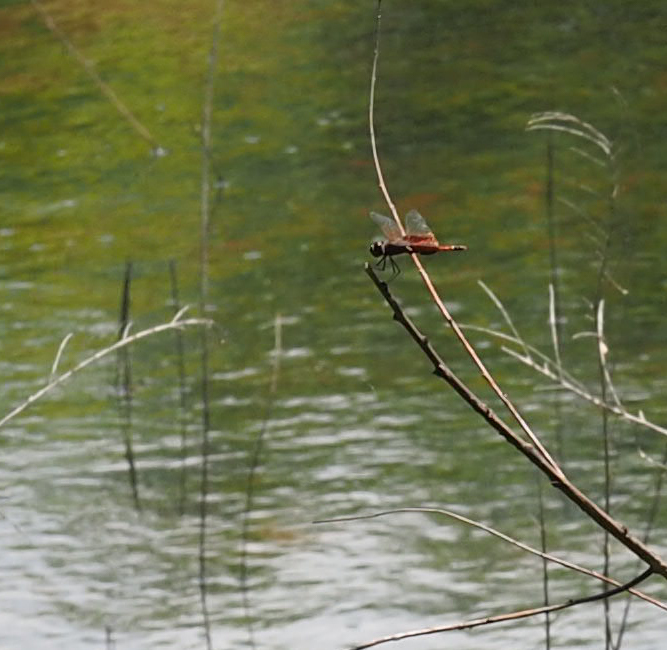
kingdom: Animalia
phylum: Arthropoda
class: Insecta
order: Odonata
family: Libellulidae
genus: Tramea
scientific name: Tramea carolina
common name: Carolina saddlebags
